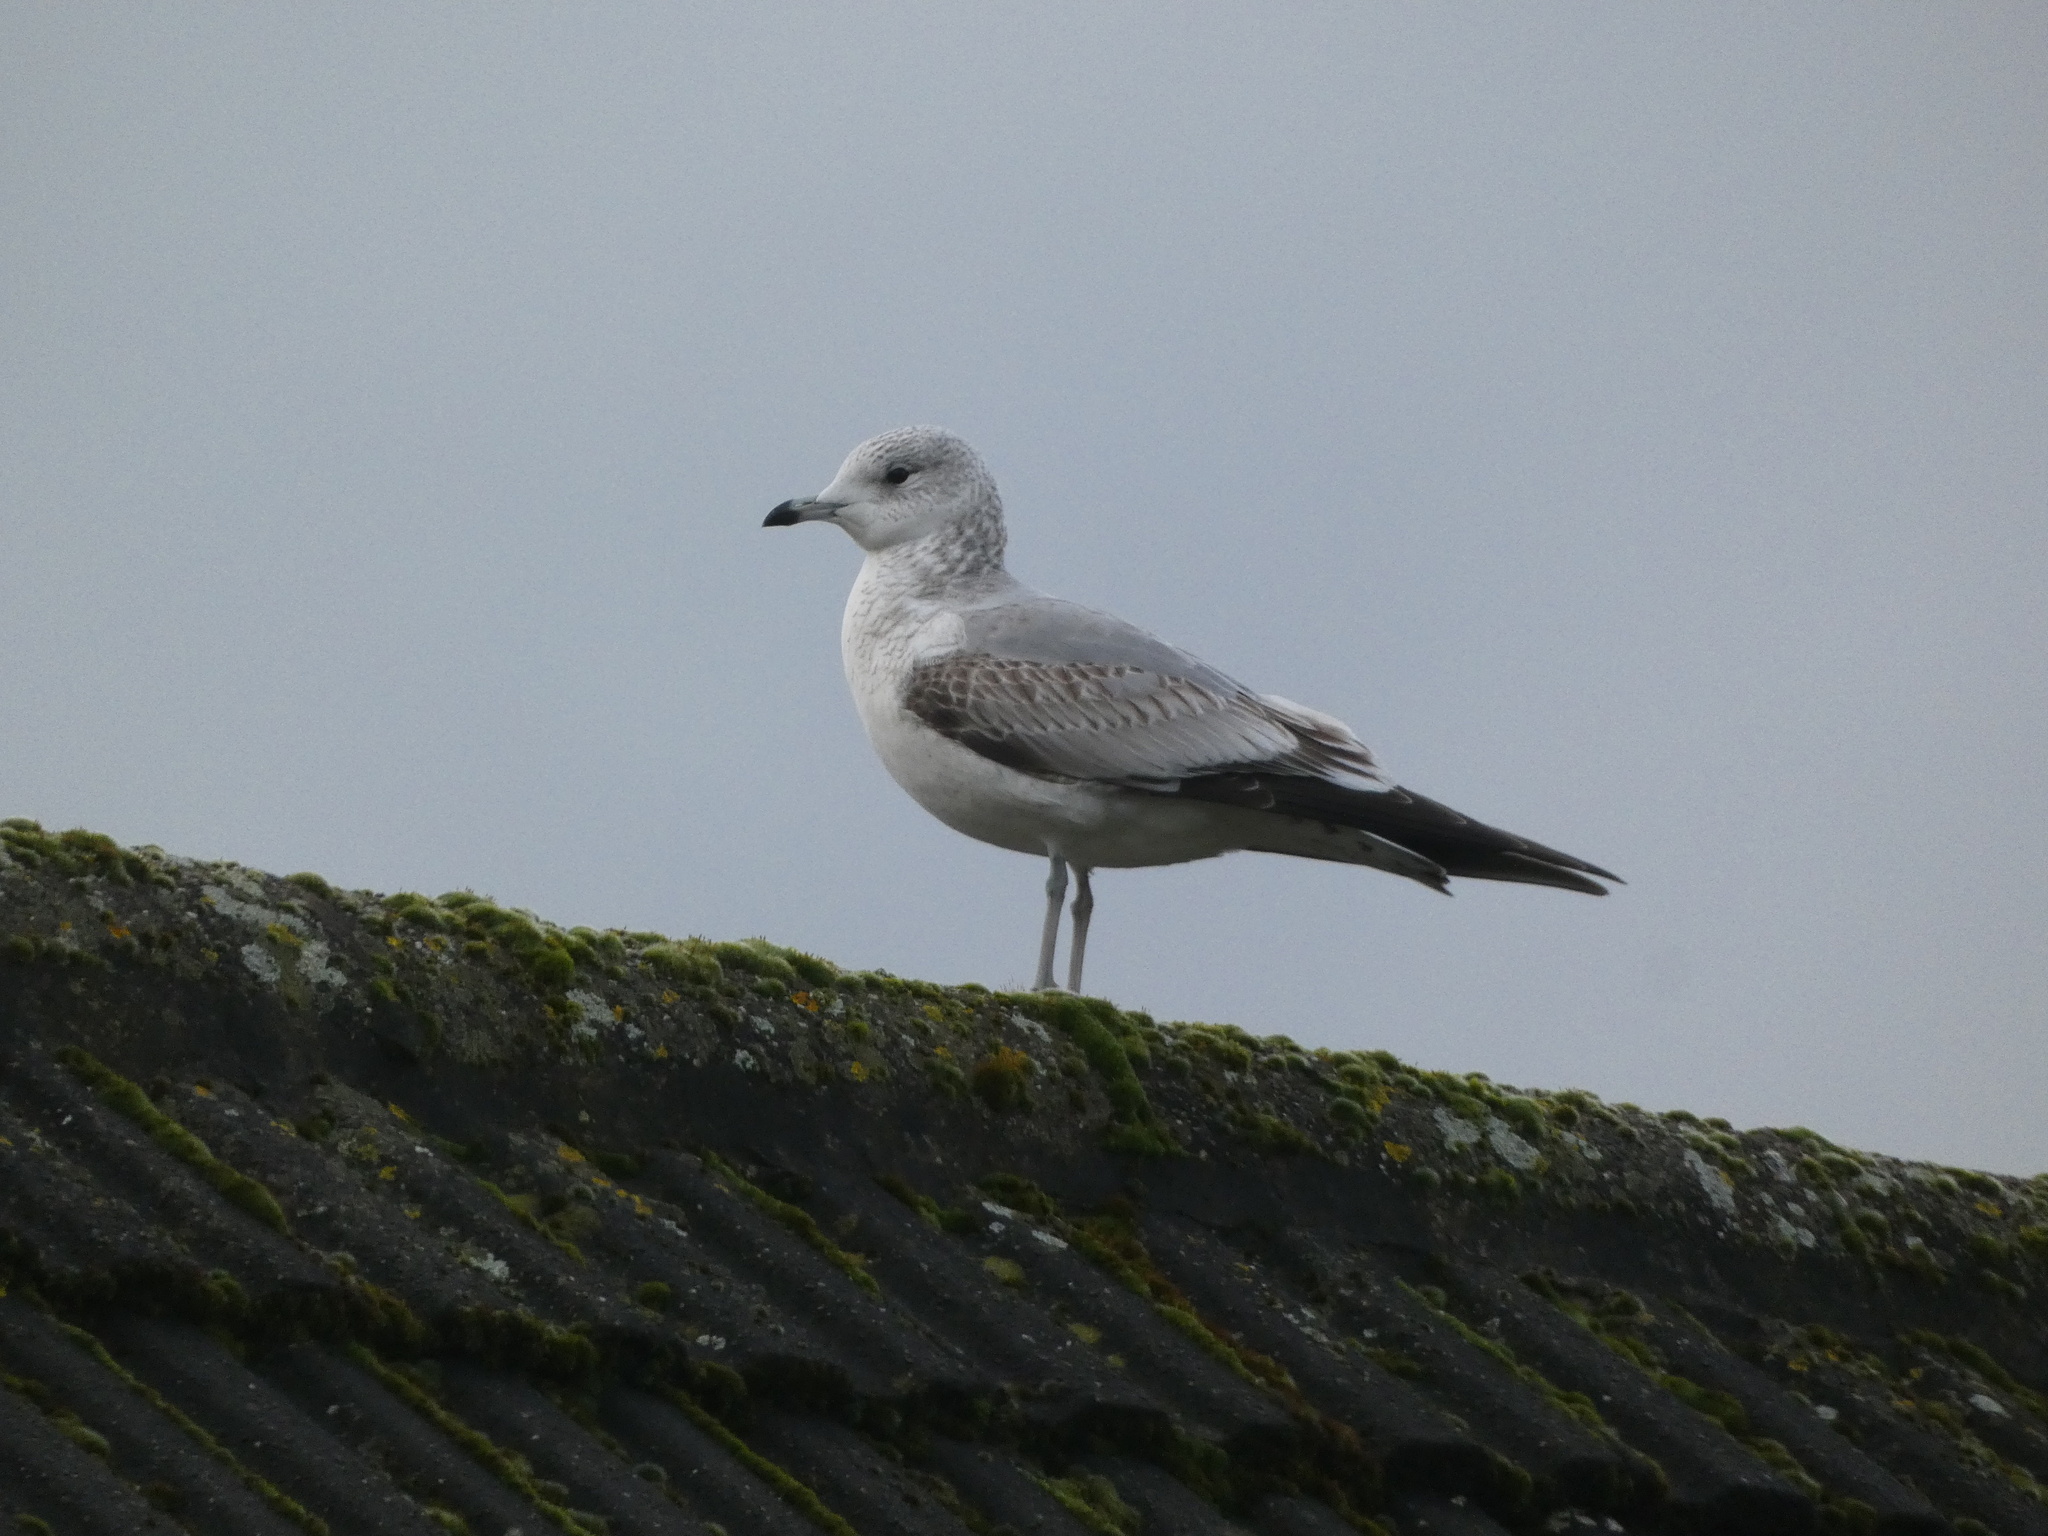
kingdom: Animalia
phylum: Chordata
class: Aves
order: Charadriiformes
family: Laridae
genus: Larus
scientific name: Larus canus
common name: Mew gull
